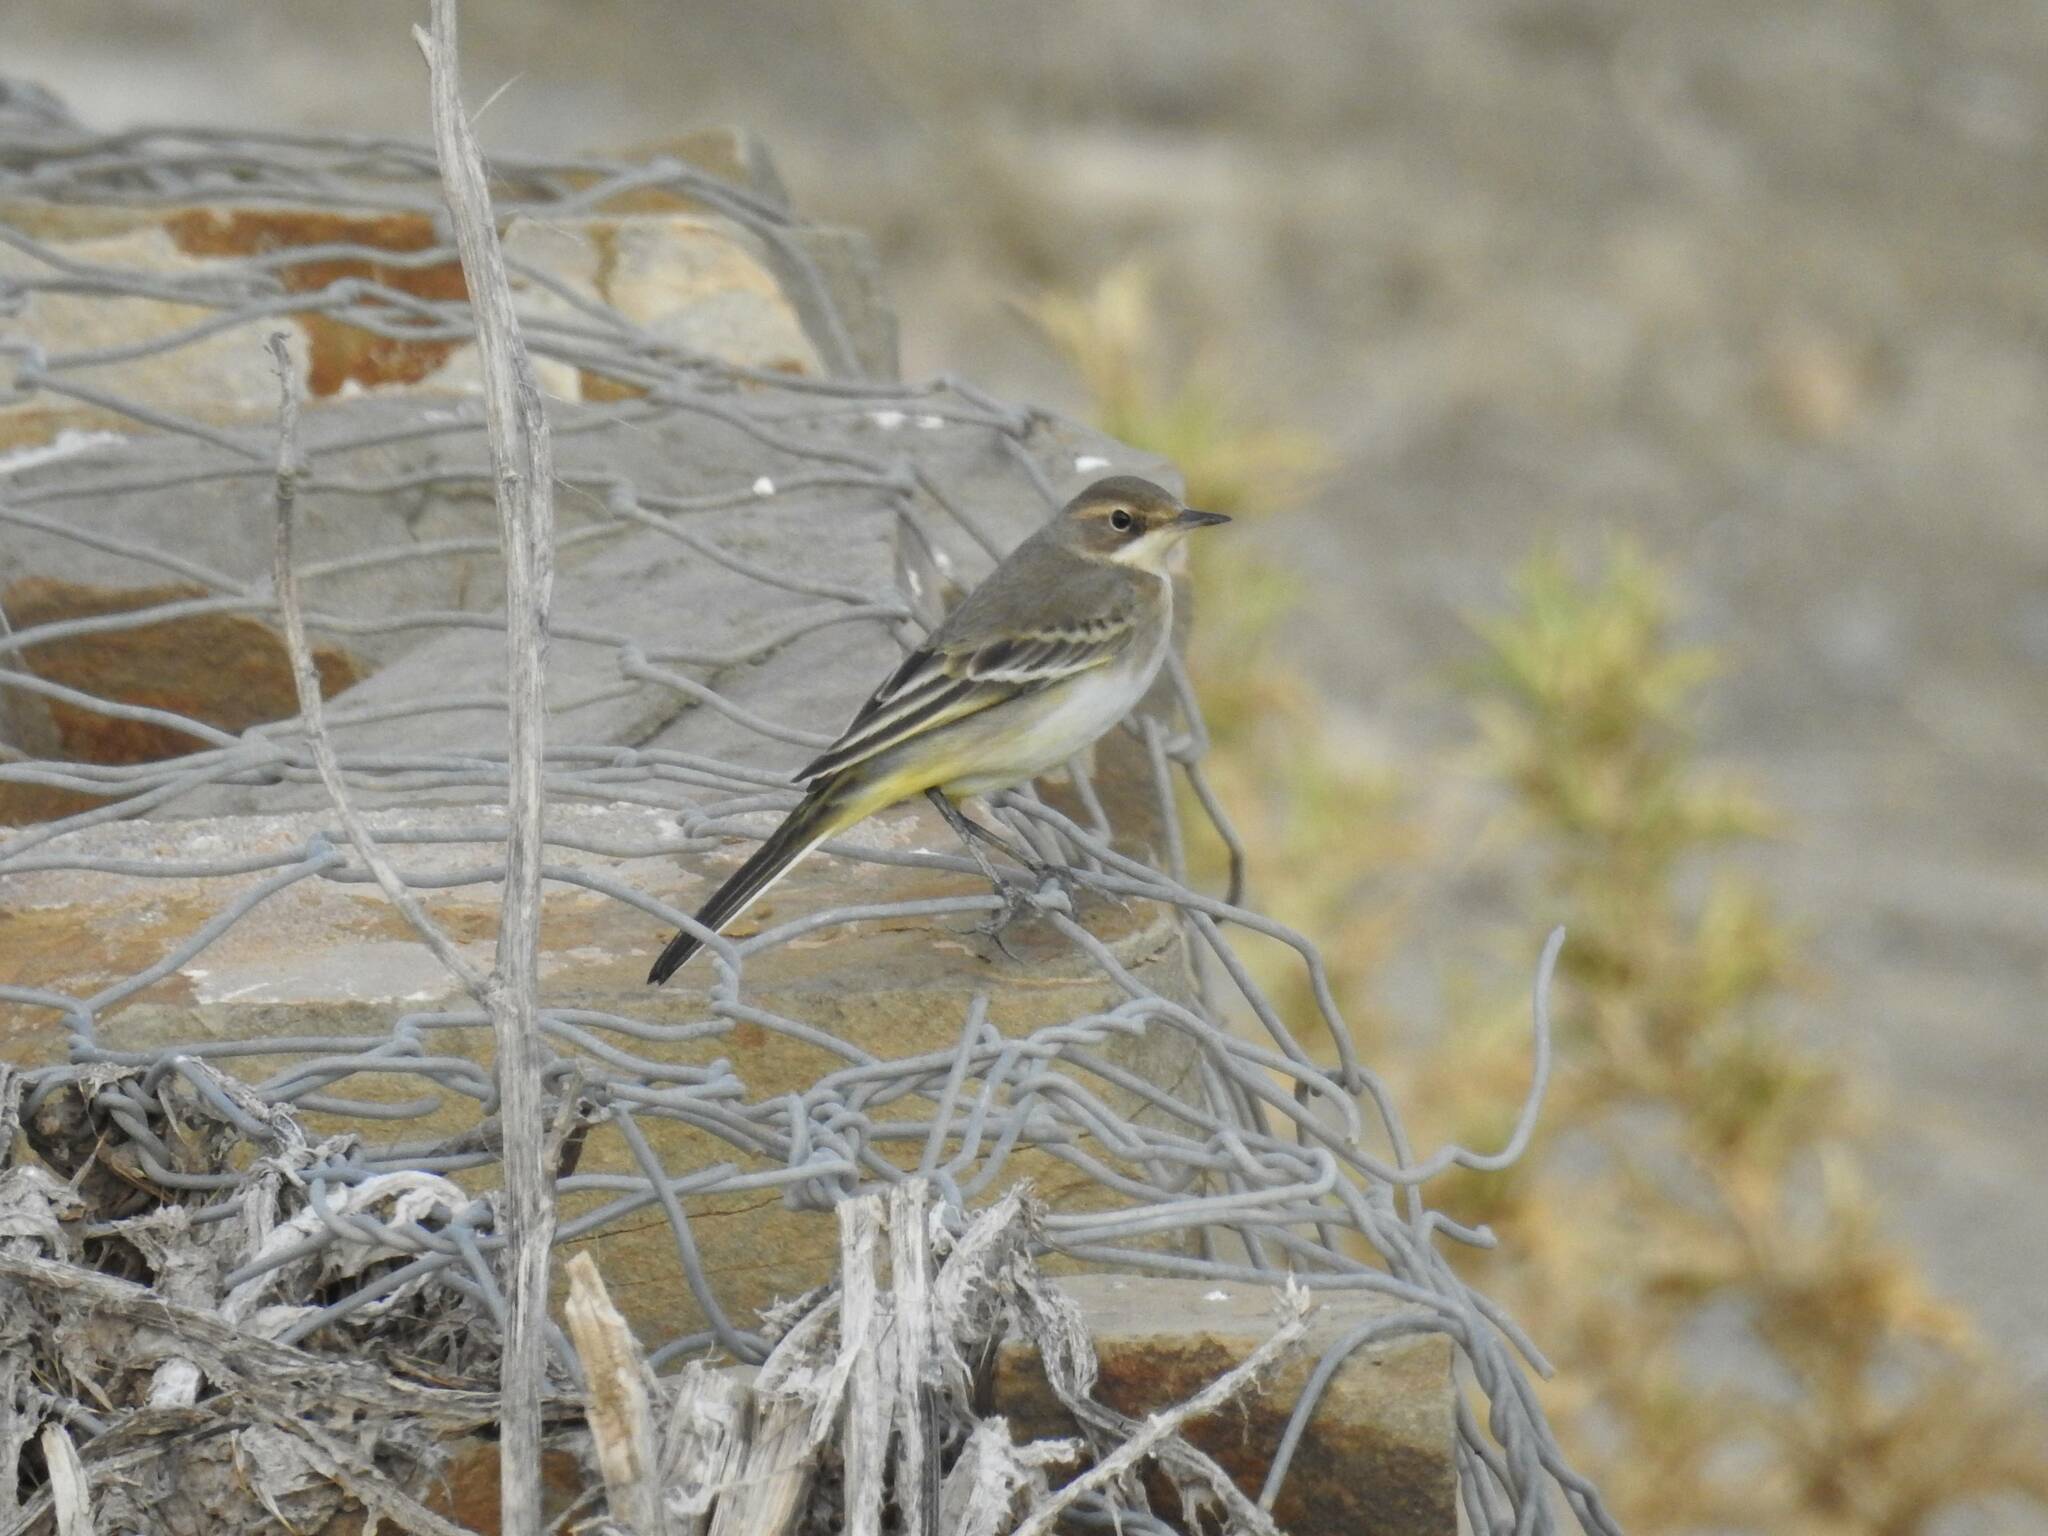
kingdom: Animalia
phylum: Chordata
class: Aves
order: Passeriformes
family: Motacillidae
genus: Motacilla
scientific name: Motacilla flava
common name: Western yellow wagtail
